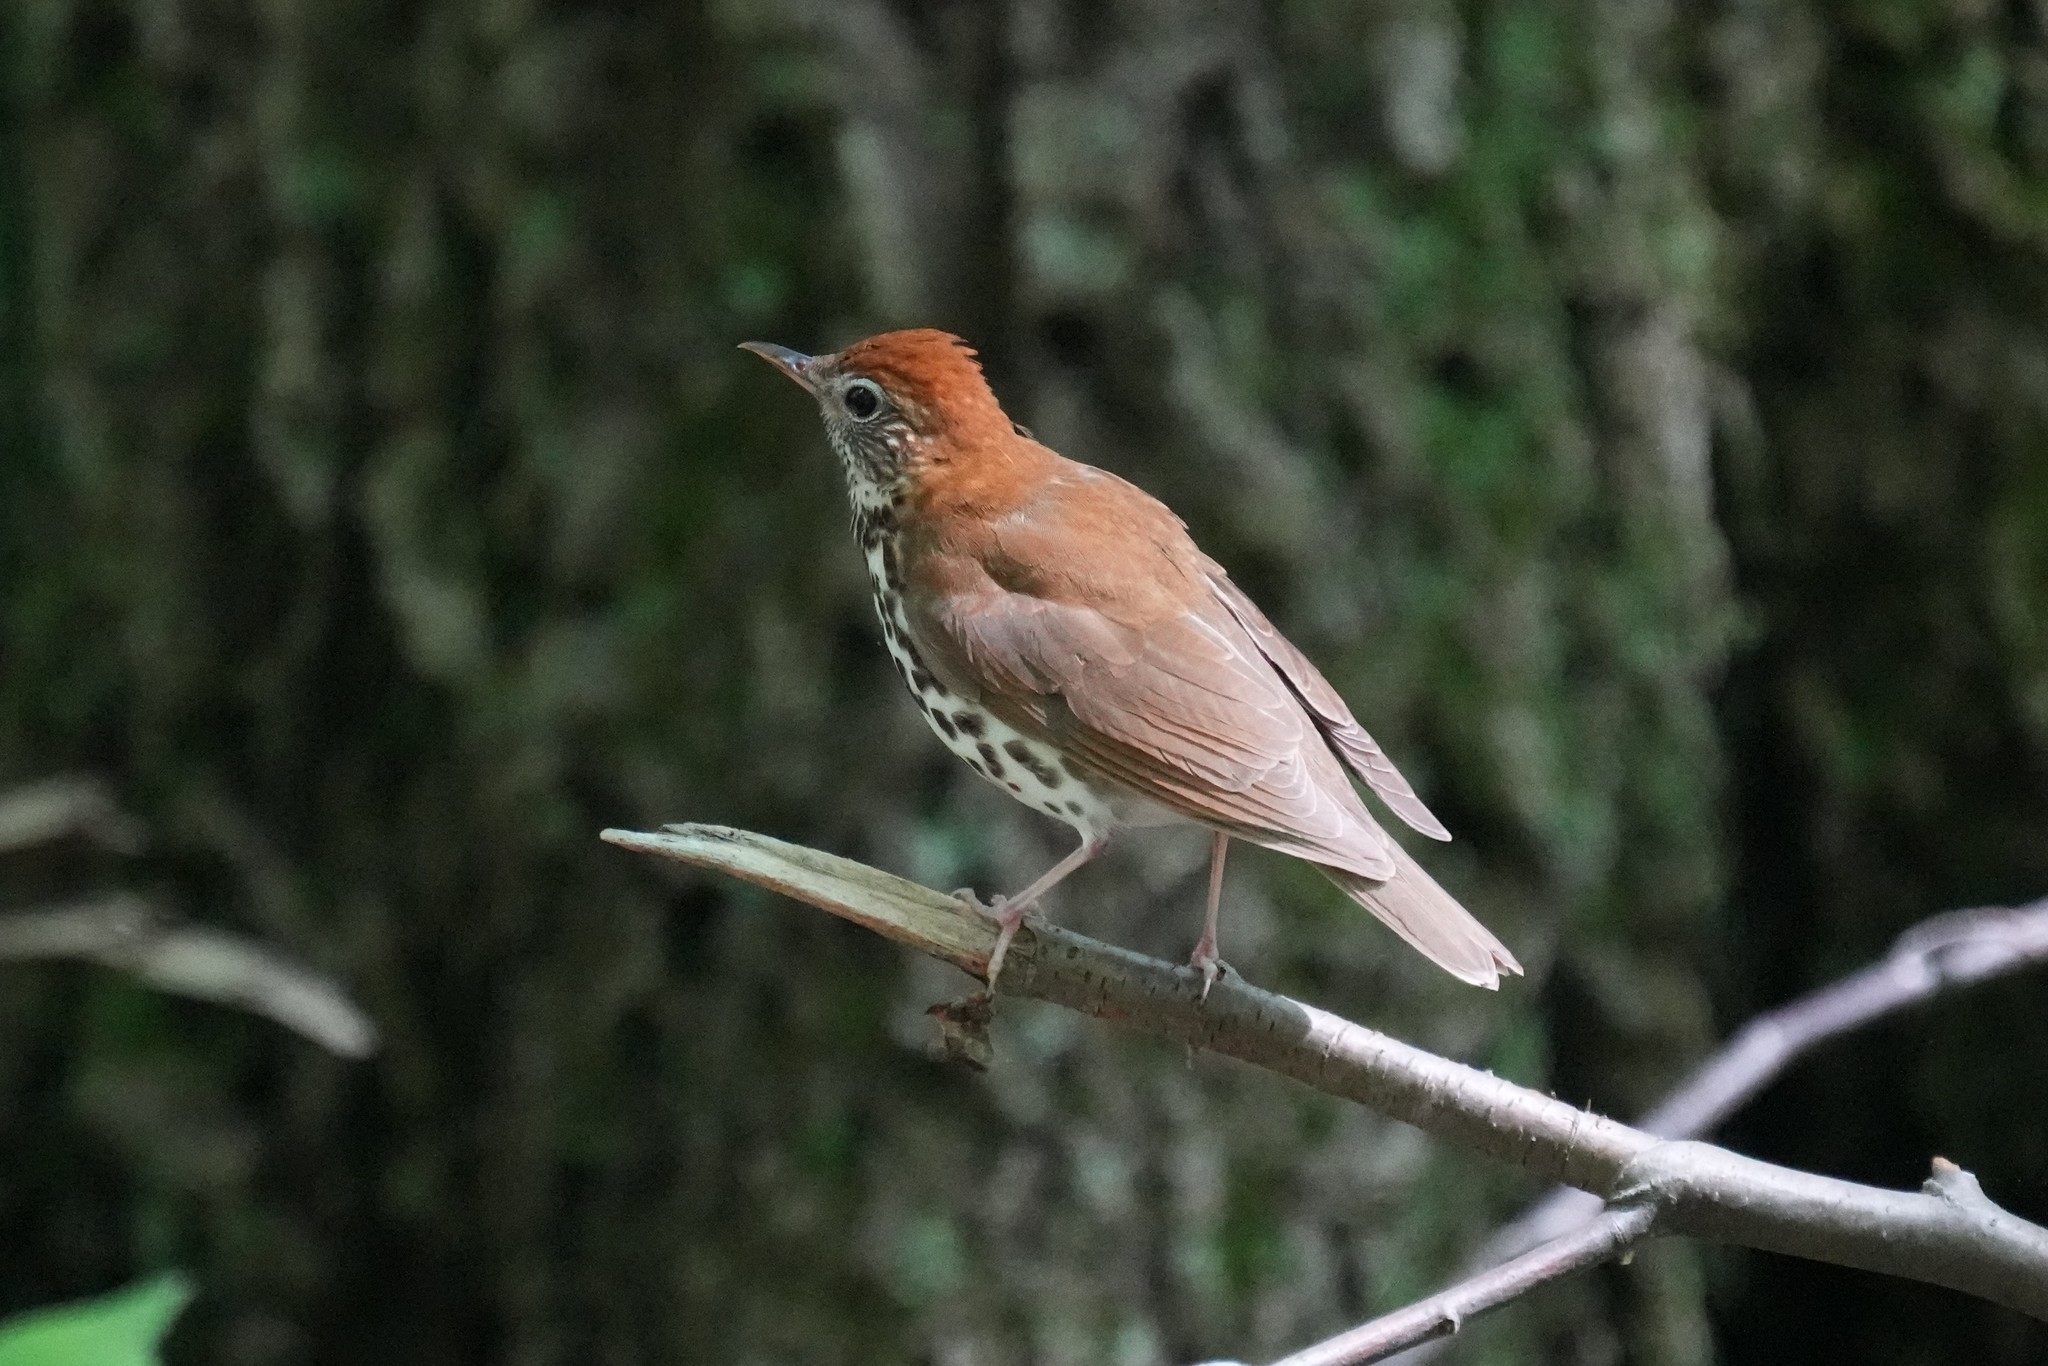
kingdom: Animalia
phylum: Chordata
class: Aves
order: Passeriformes
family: Turdidae
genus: Hylocichla
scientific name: Hylocichla mustelina
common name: Wood thrush
